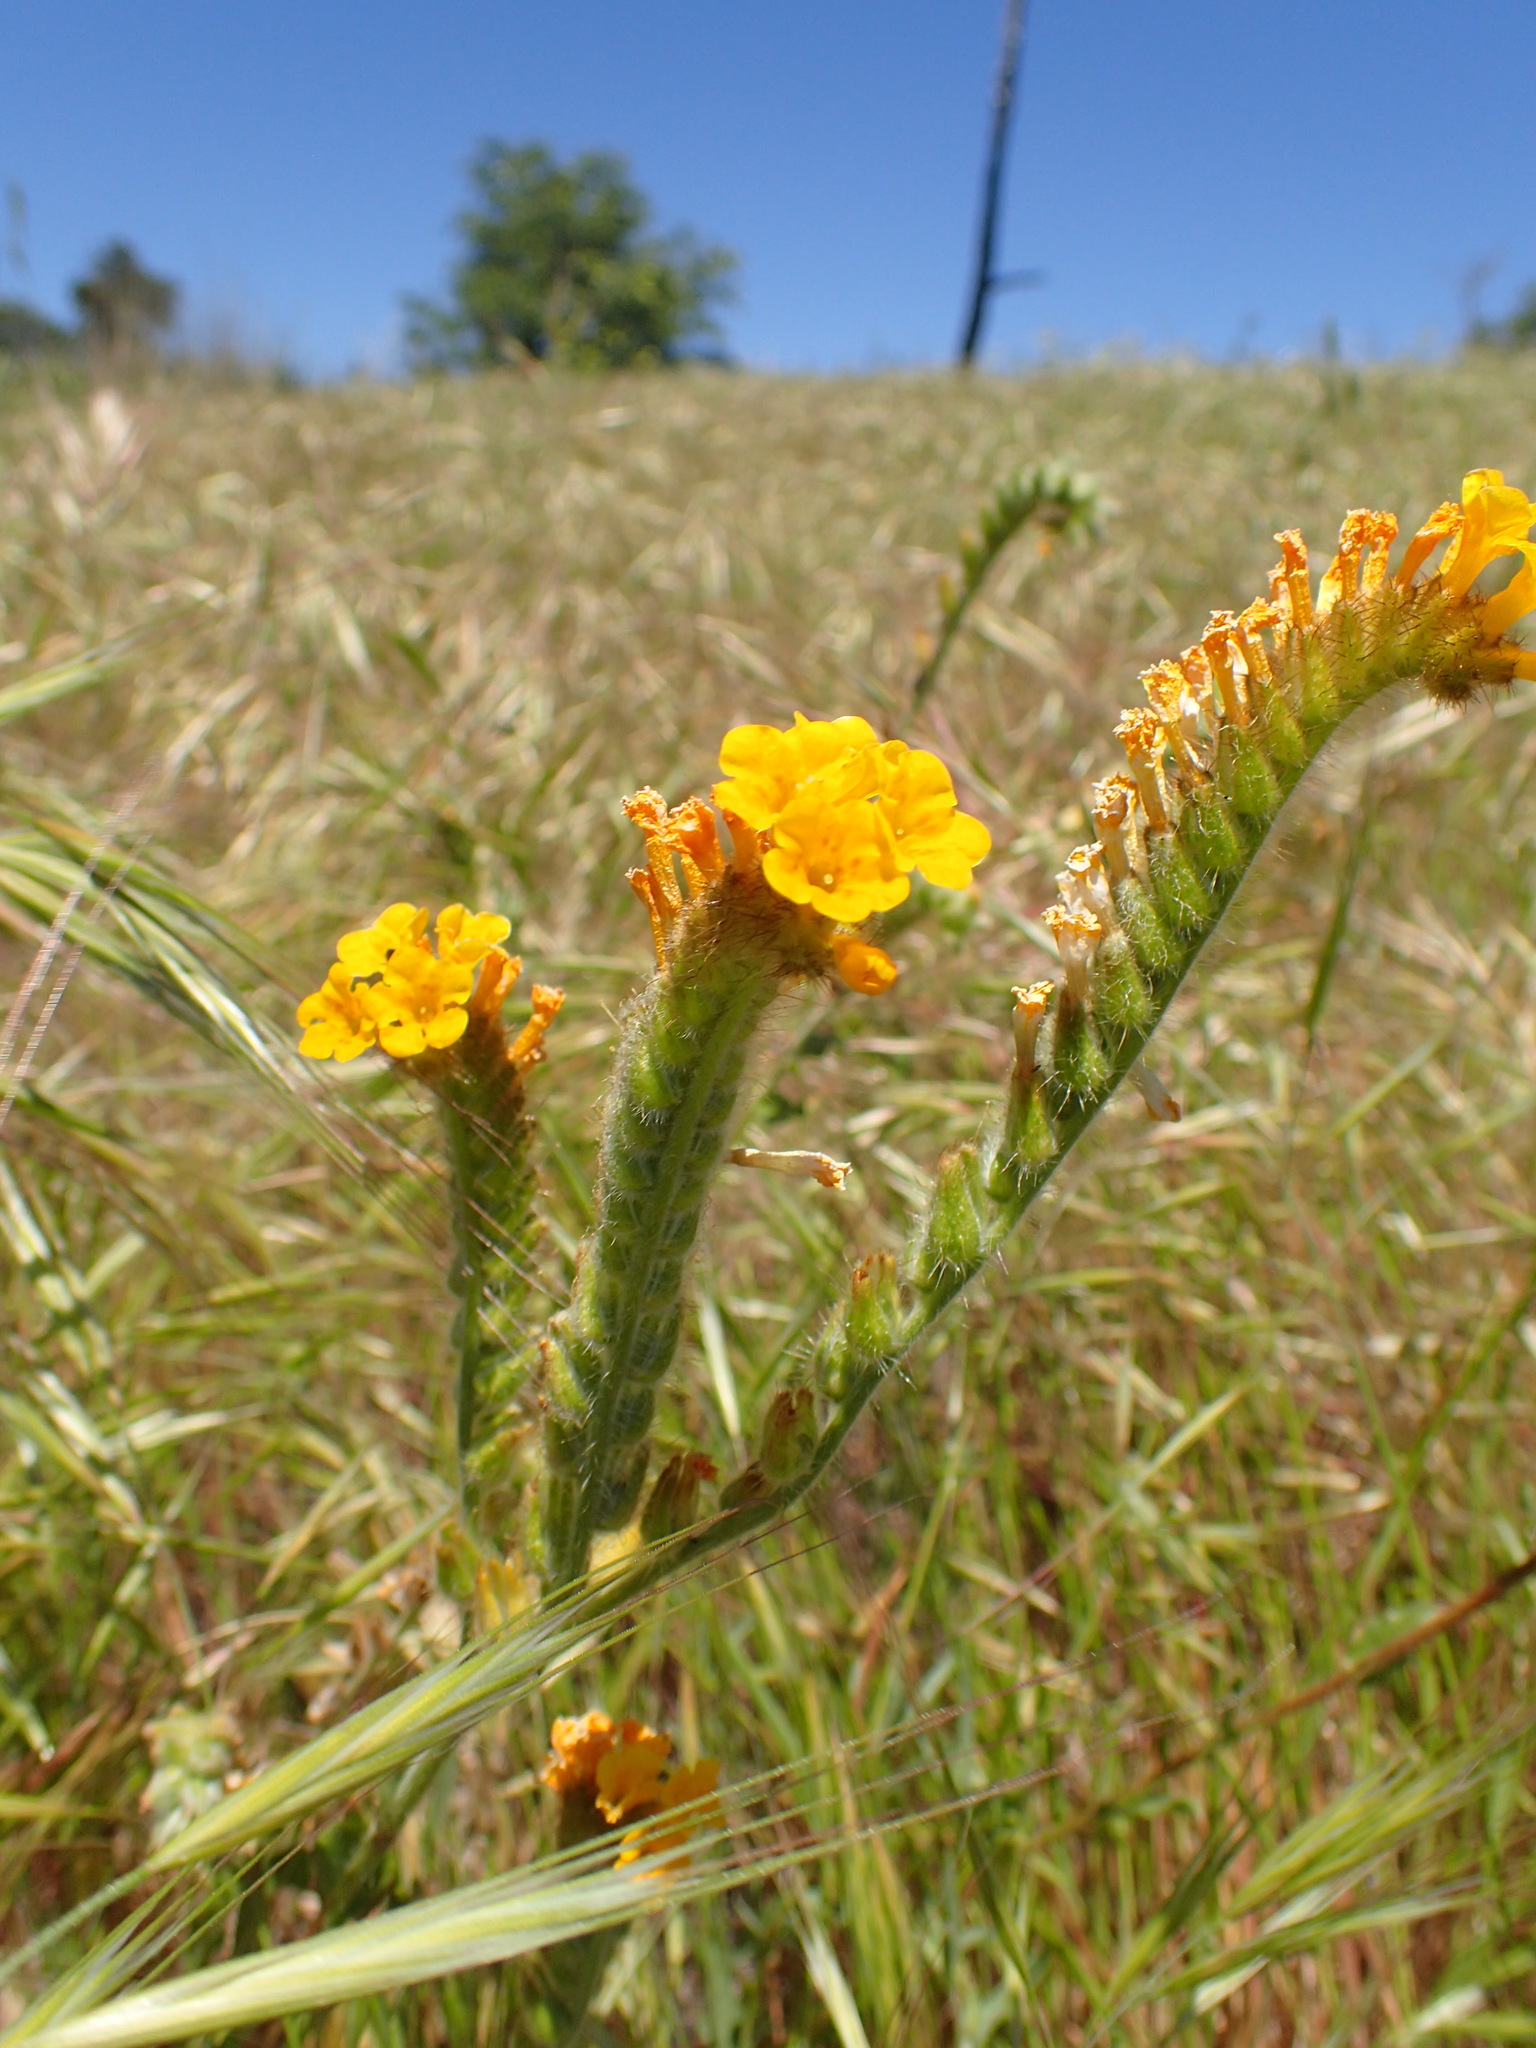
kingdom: Plantae
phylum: Tracheophyta
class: Magnoliopsida
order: Boraginales
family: Boraginaceae
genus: Amsinckia
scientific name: Amsinckia douglasiana
